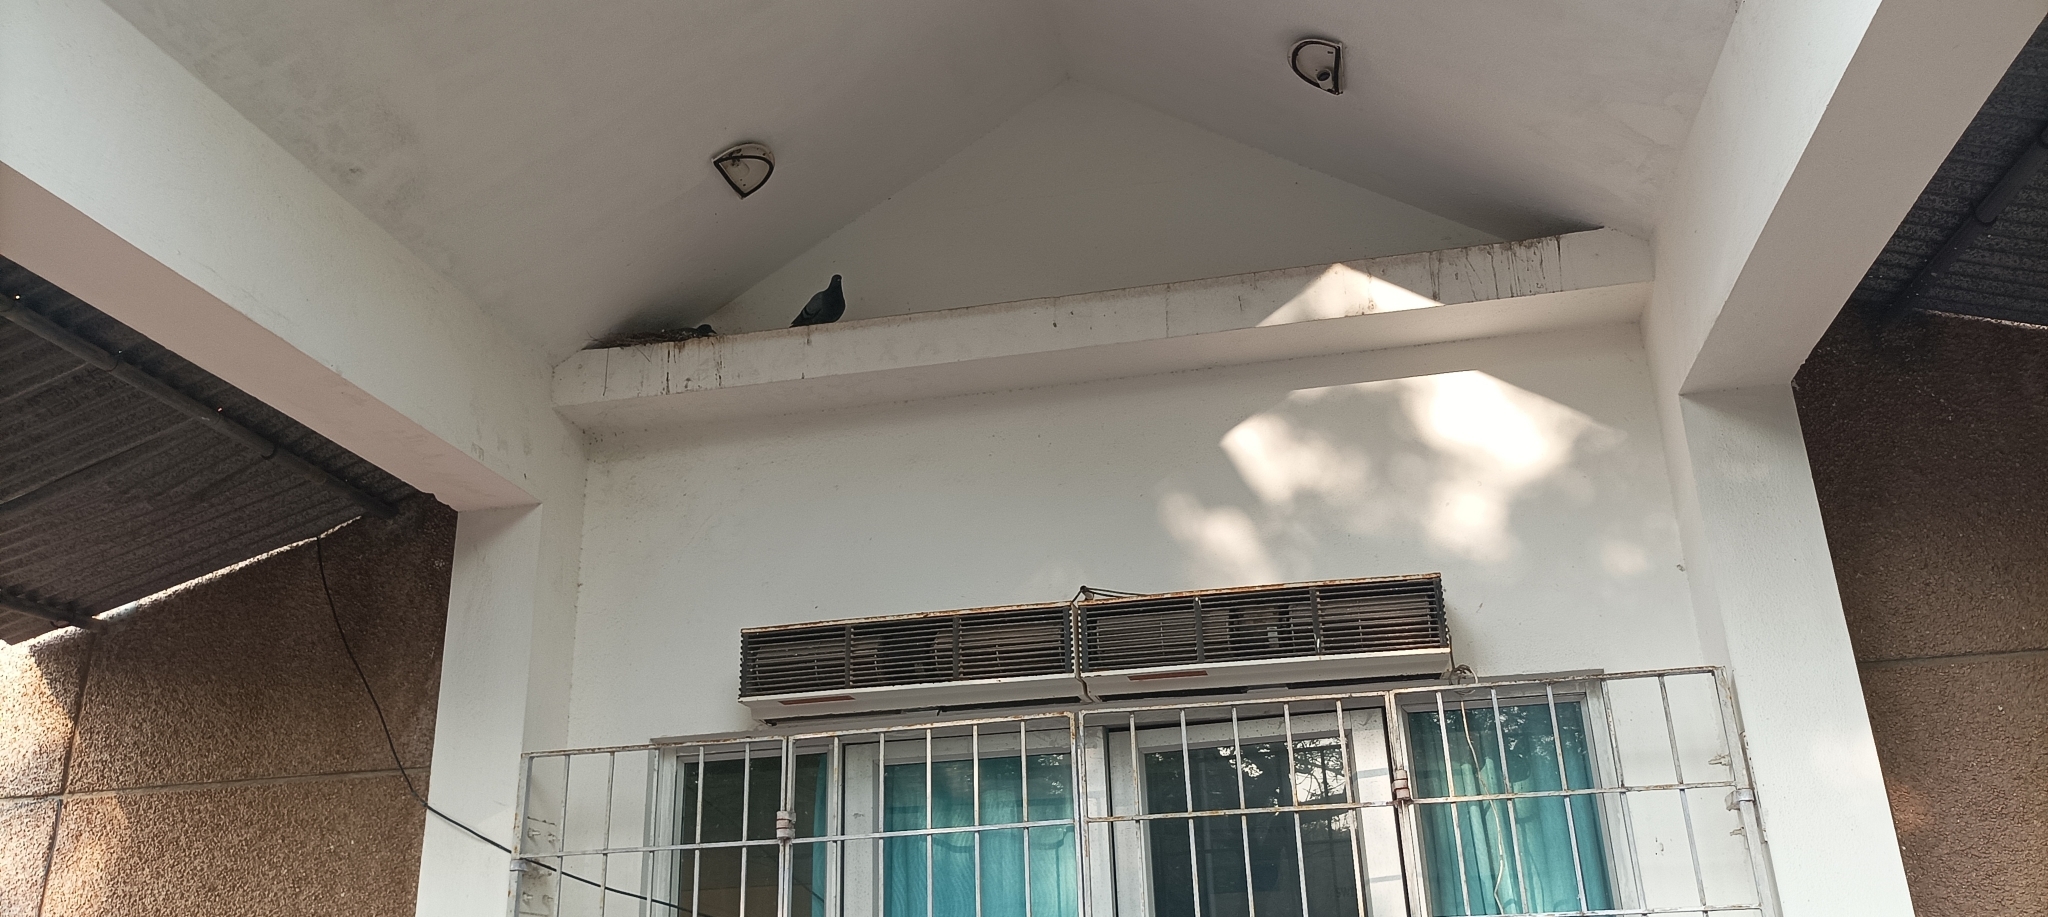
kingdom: Animalia
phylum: Chordata
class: Aves
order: Columbiformes
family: Columbidae
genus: Columba
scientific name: Columba livia
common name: Rock pigeon
